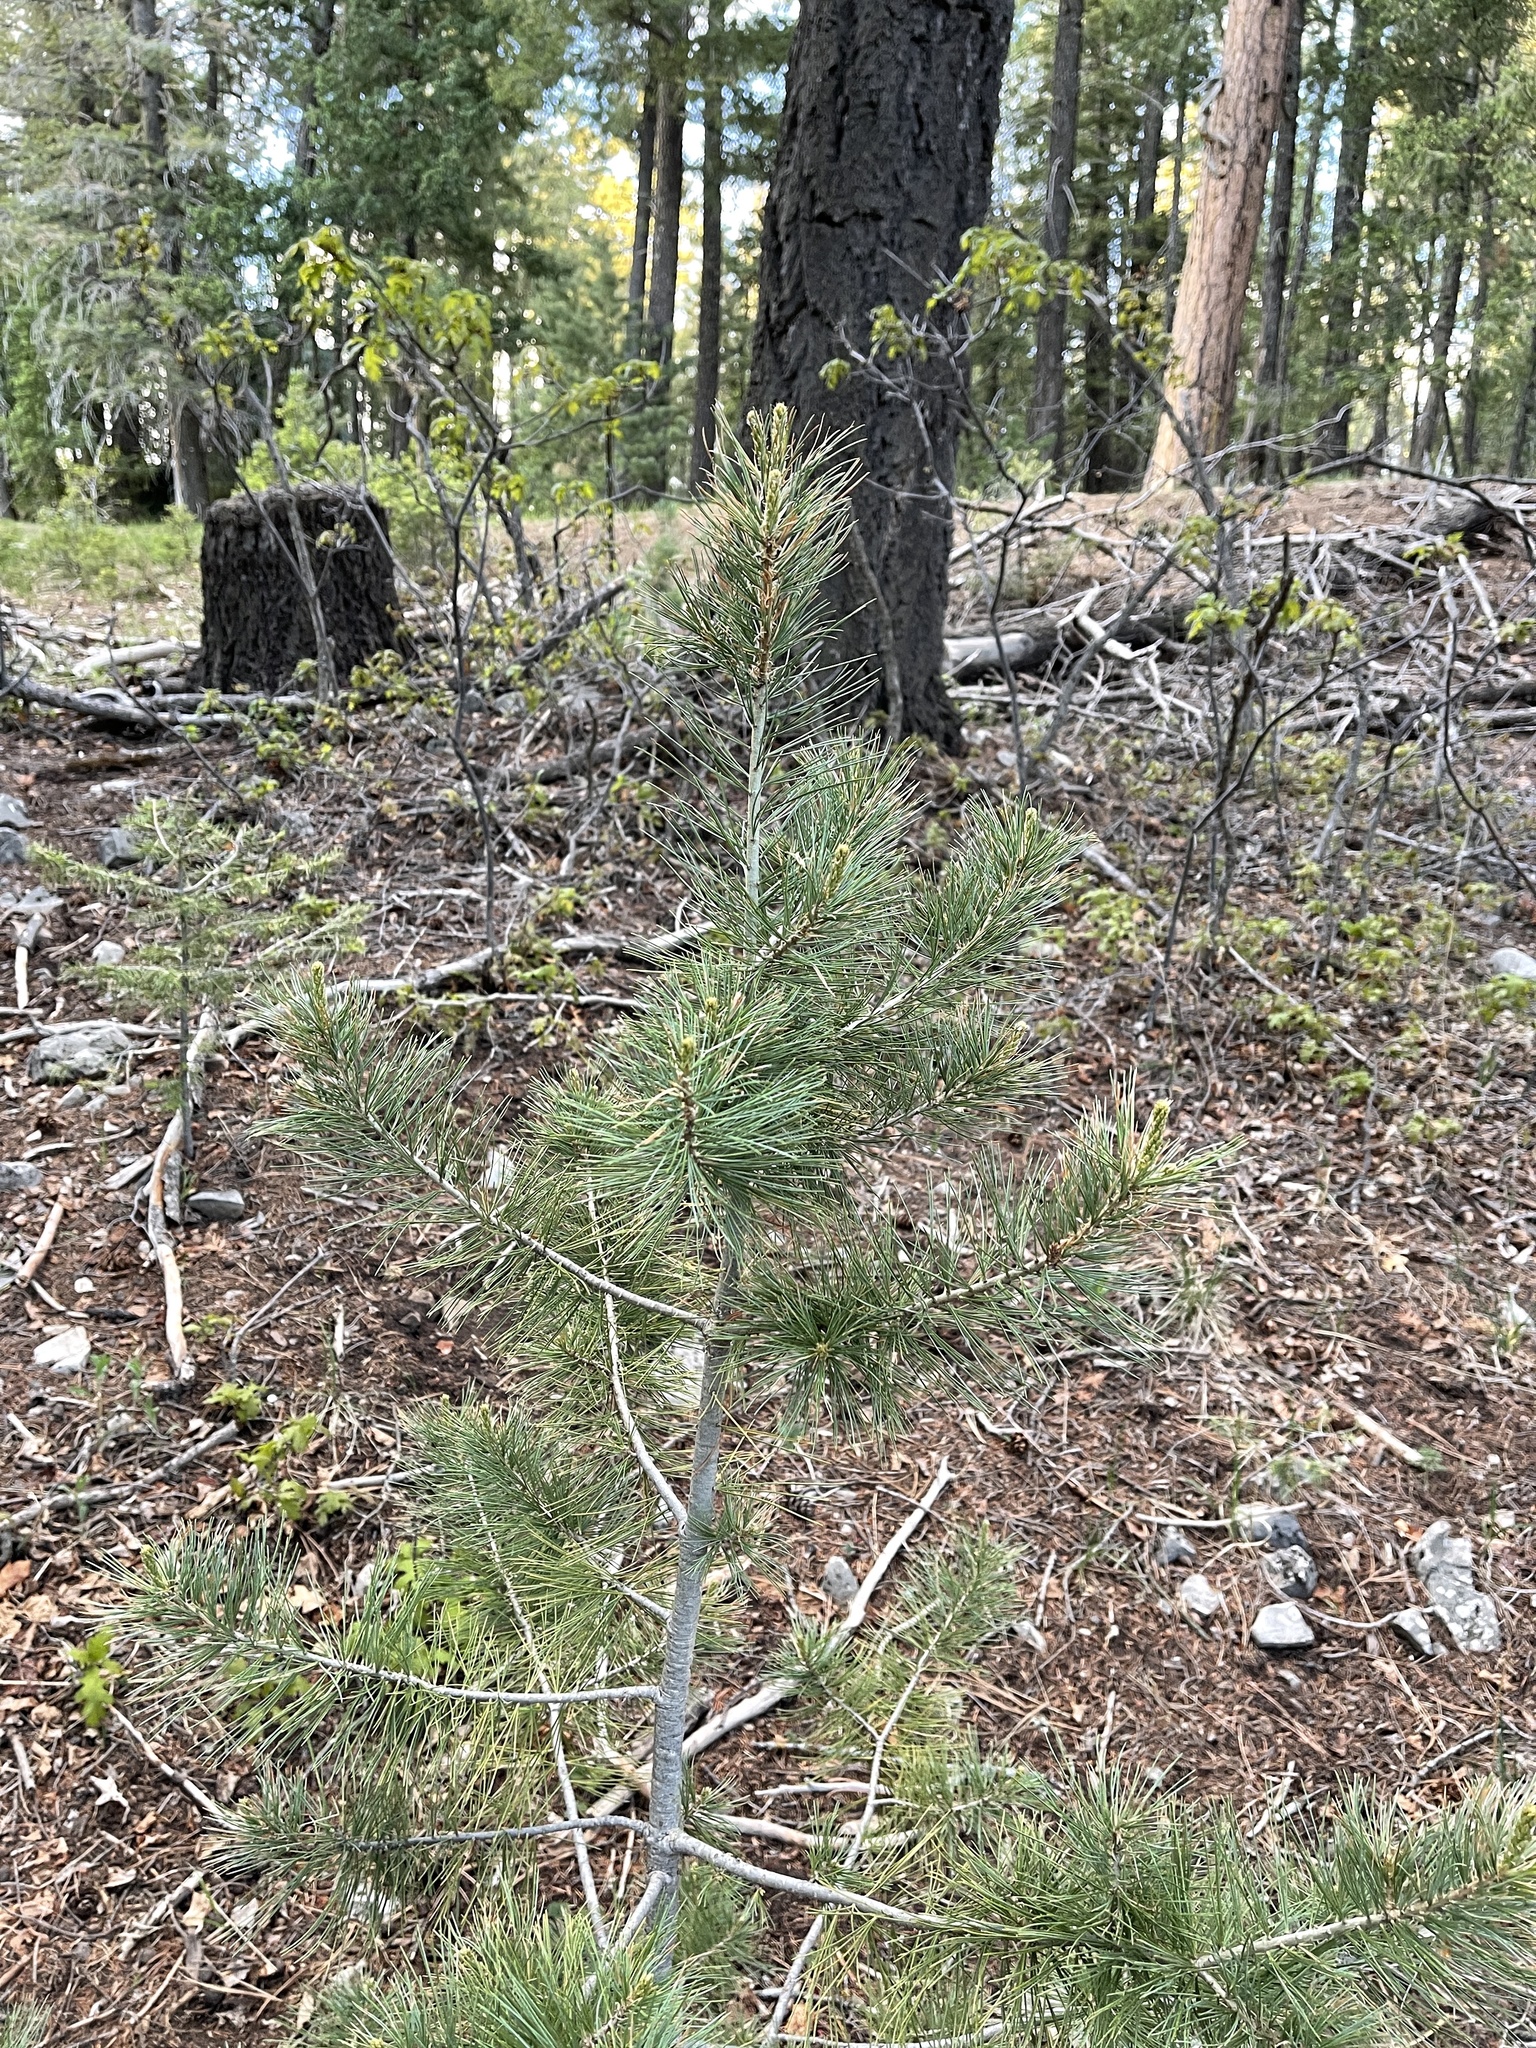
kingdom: Plantae
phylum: Tracheophyta
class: Pinopsida
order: Pinales
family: Pinaceae
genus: Pinus
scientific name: Pinus strobiformis
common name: Southwestern white pine
